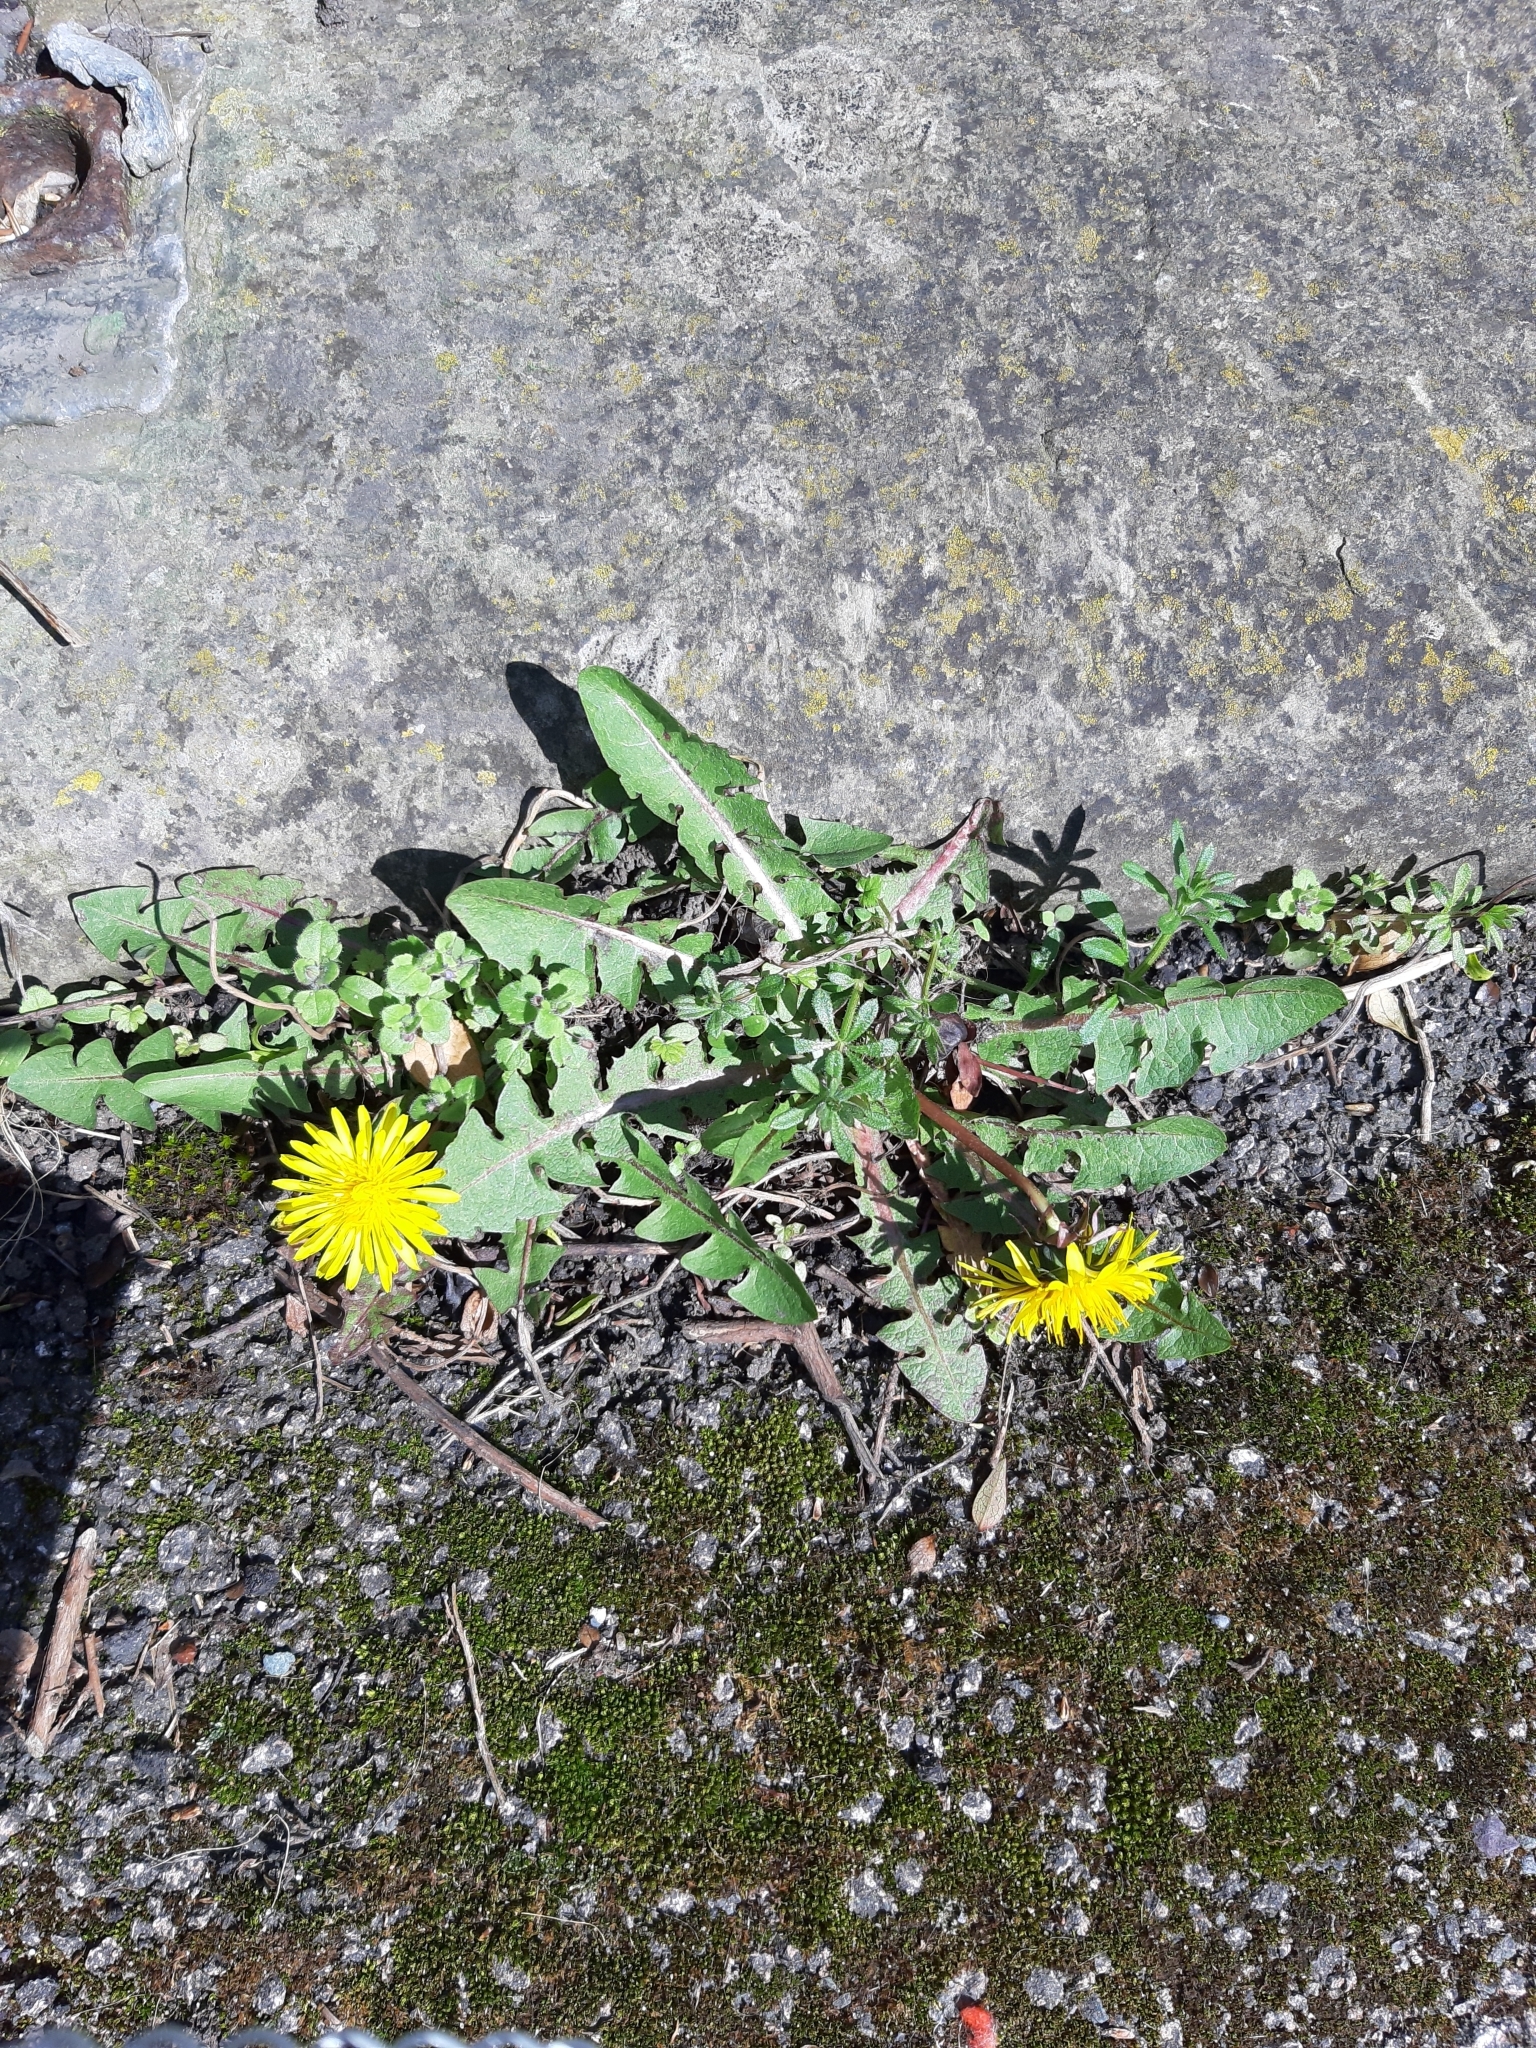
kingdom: Plantae
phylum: Tracheophyta
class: Magnoliopsida
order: Asterales
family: Asteraceae
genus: Taraxacum
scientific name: Taraxacum officinale
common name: Common dandelion
